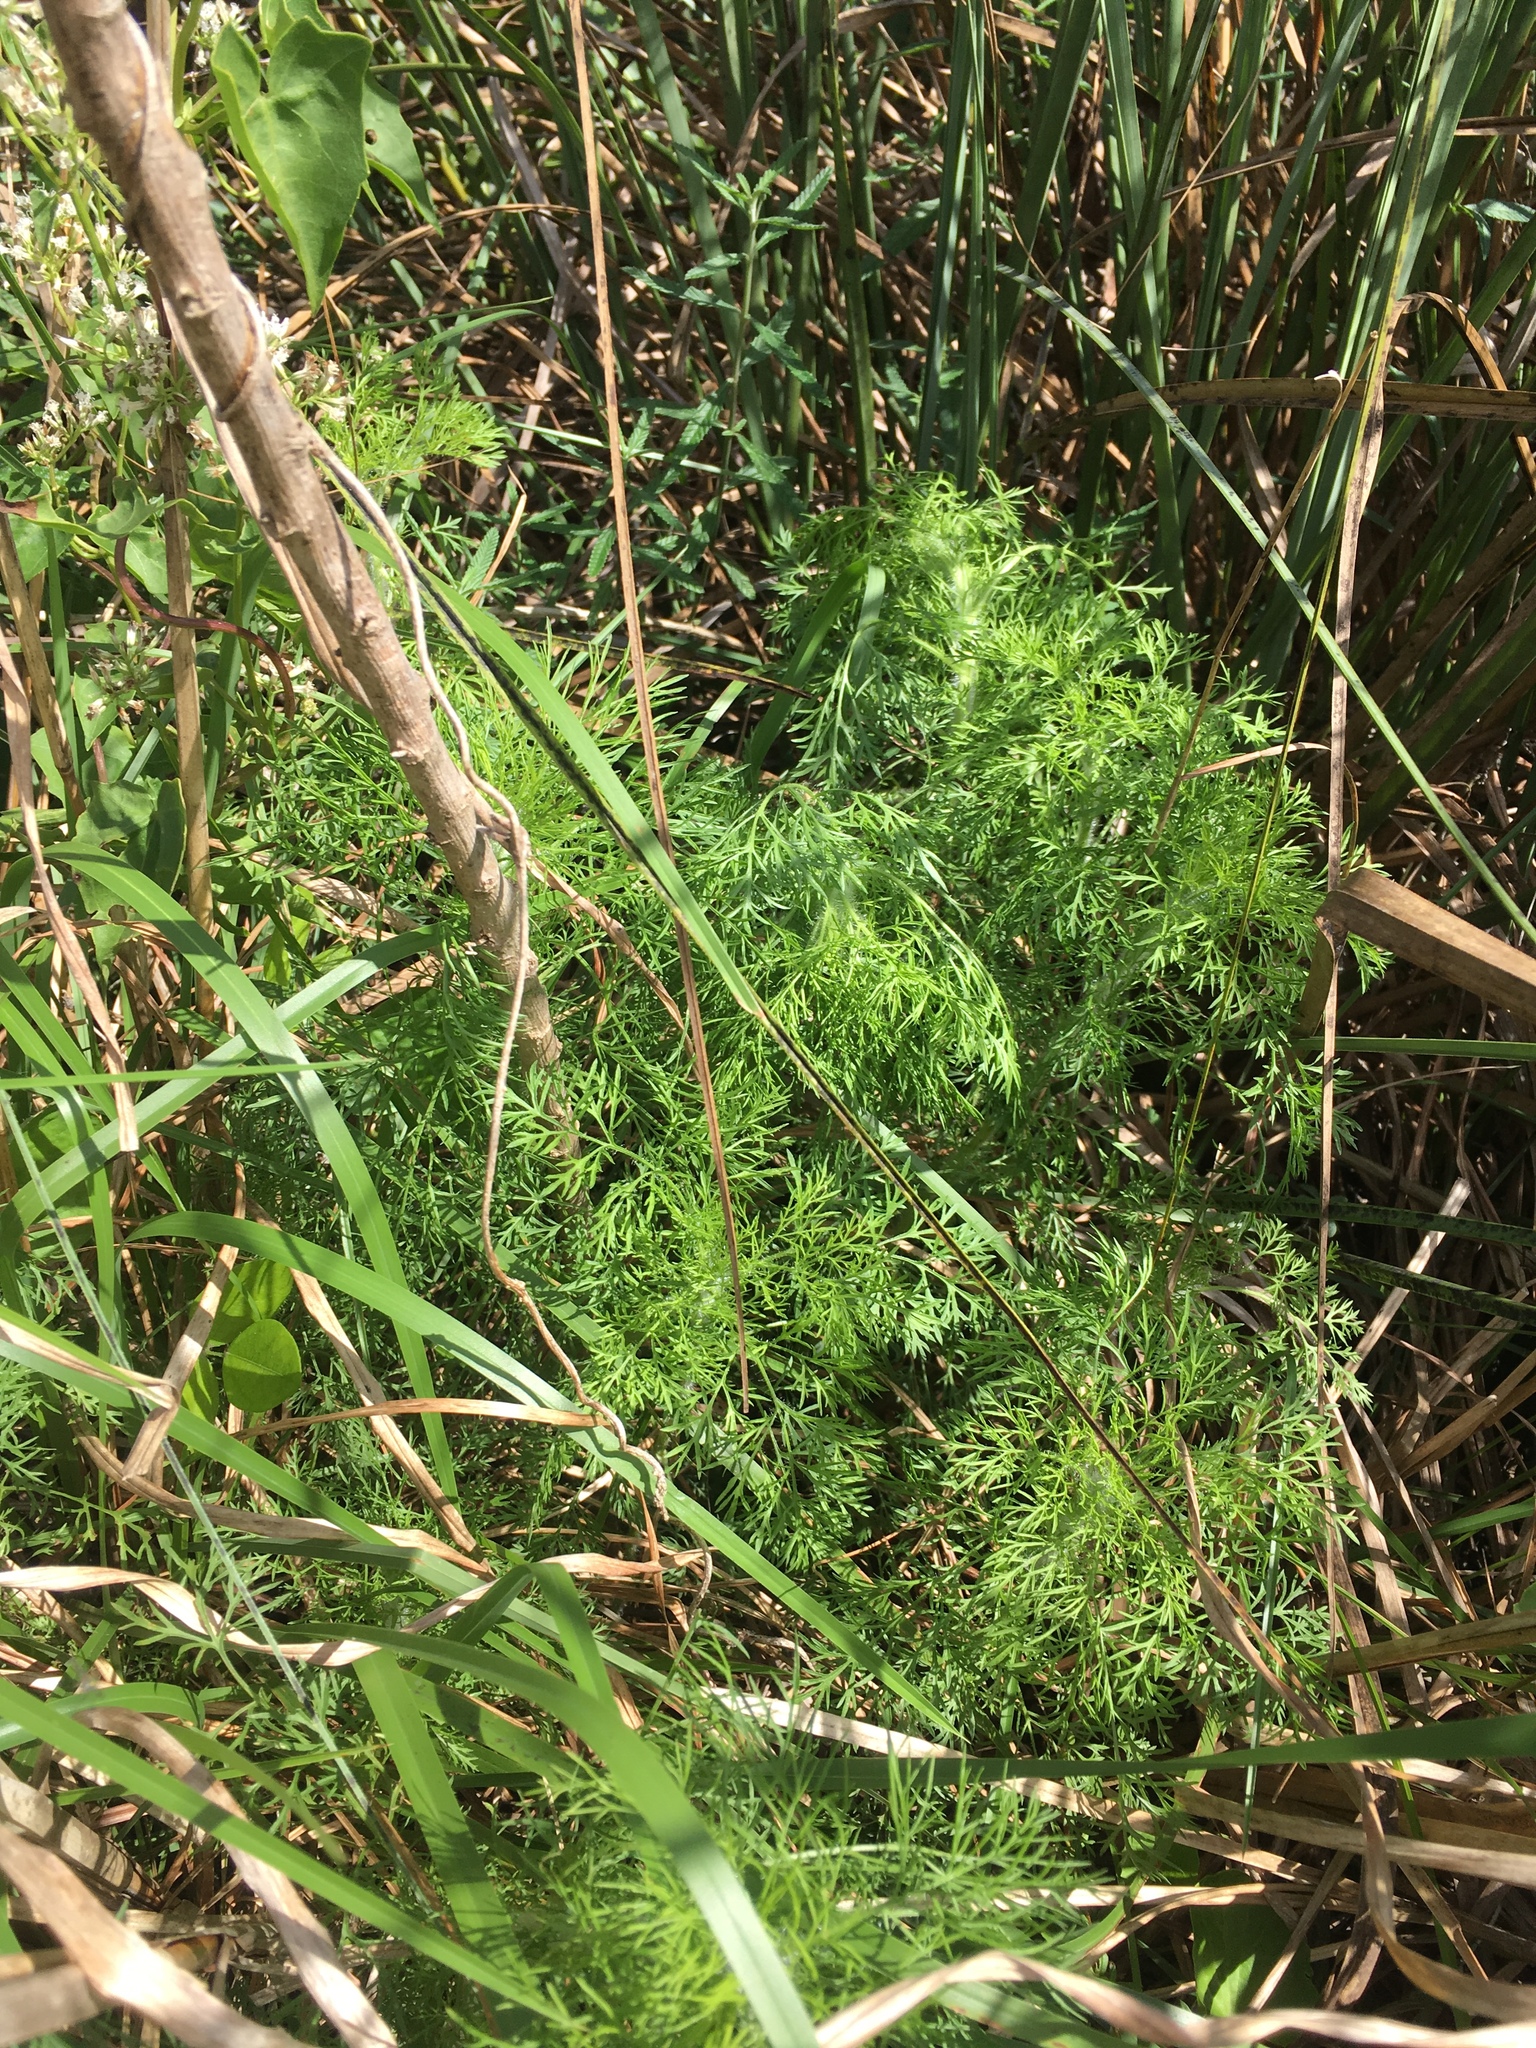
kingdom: Plantae
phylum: Tracheophyta
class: Magnoliopsida
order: Asterales
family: Asteraceae
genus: Eupatorium
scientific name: Eupatorium capillifolium
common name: Dog-fennel
